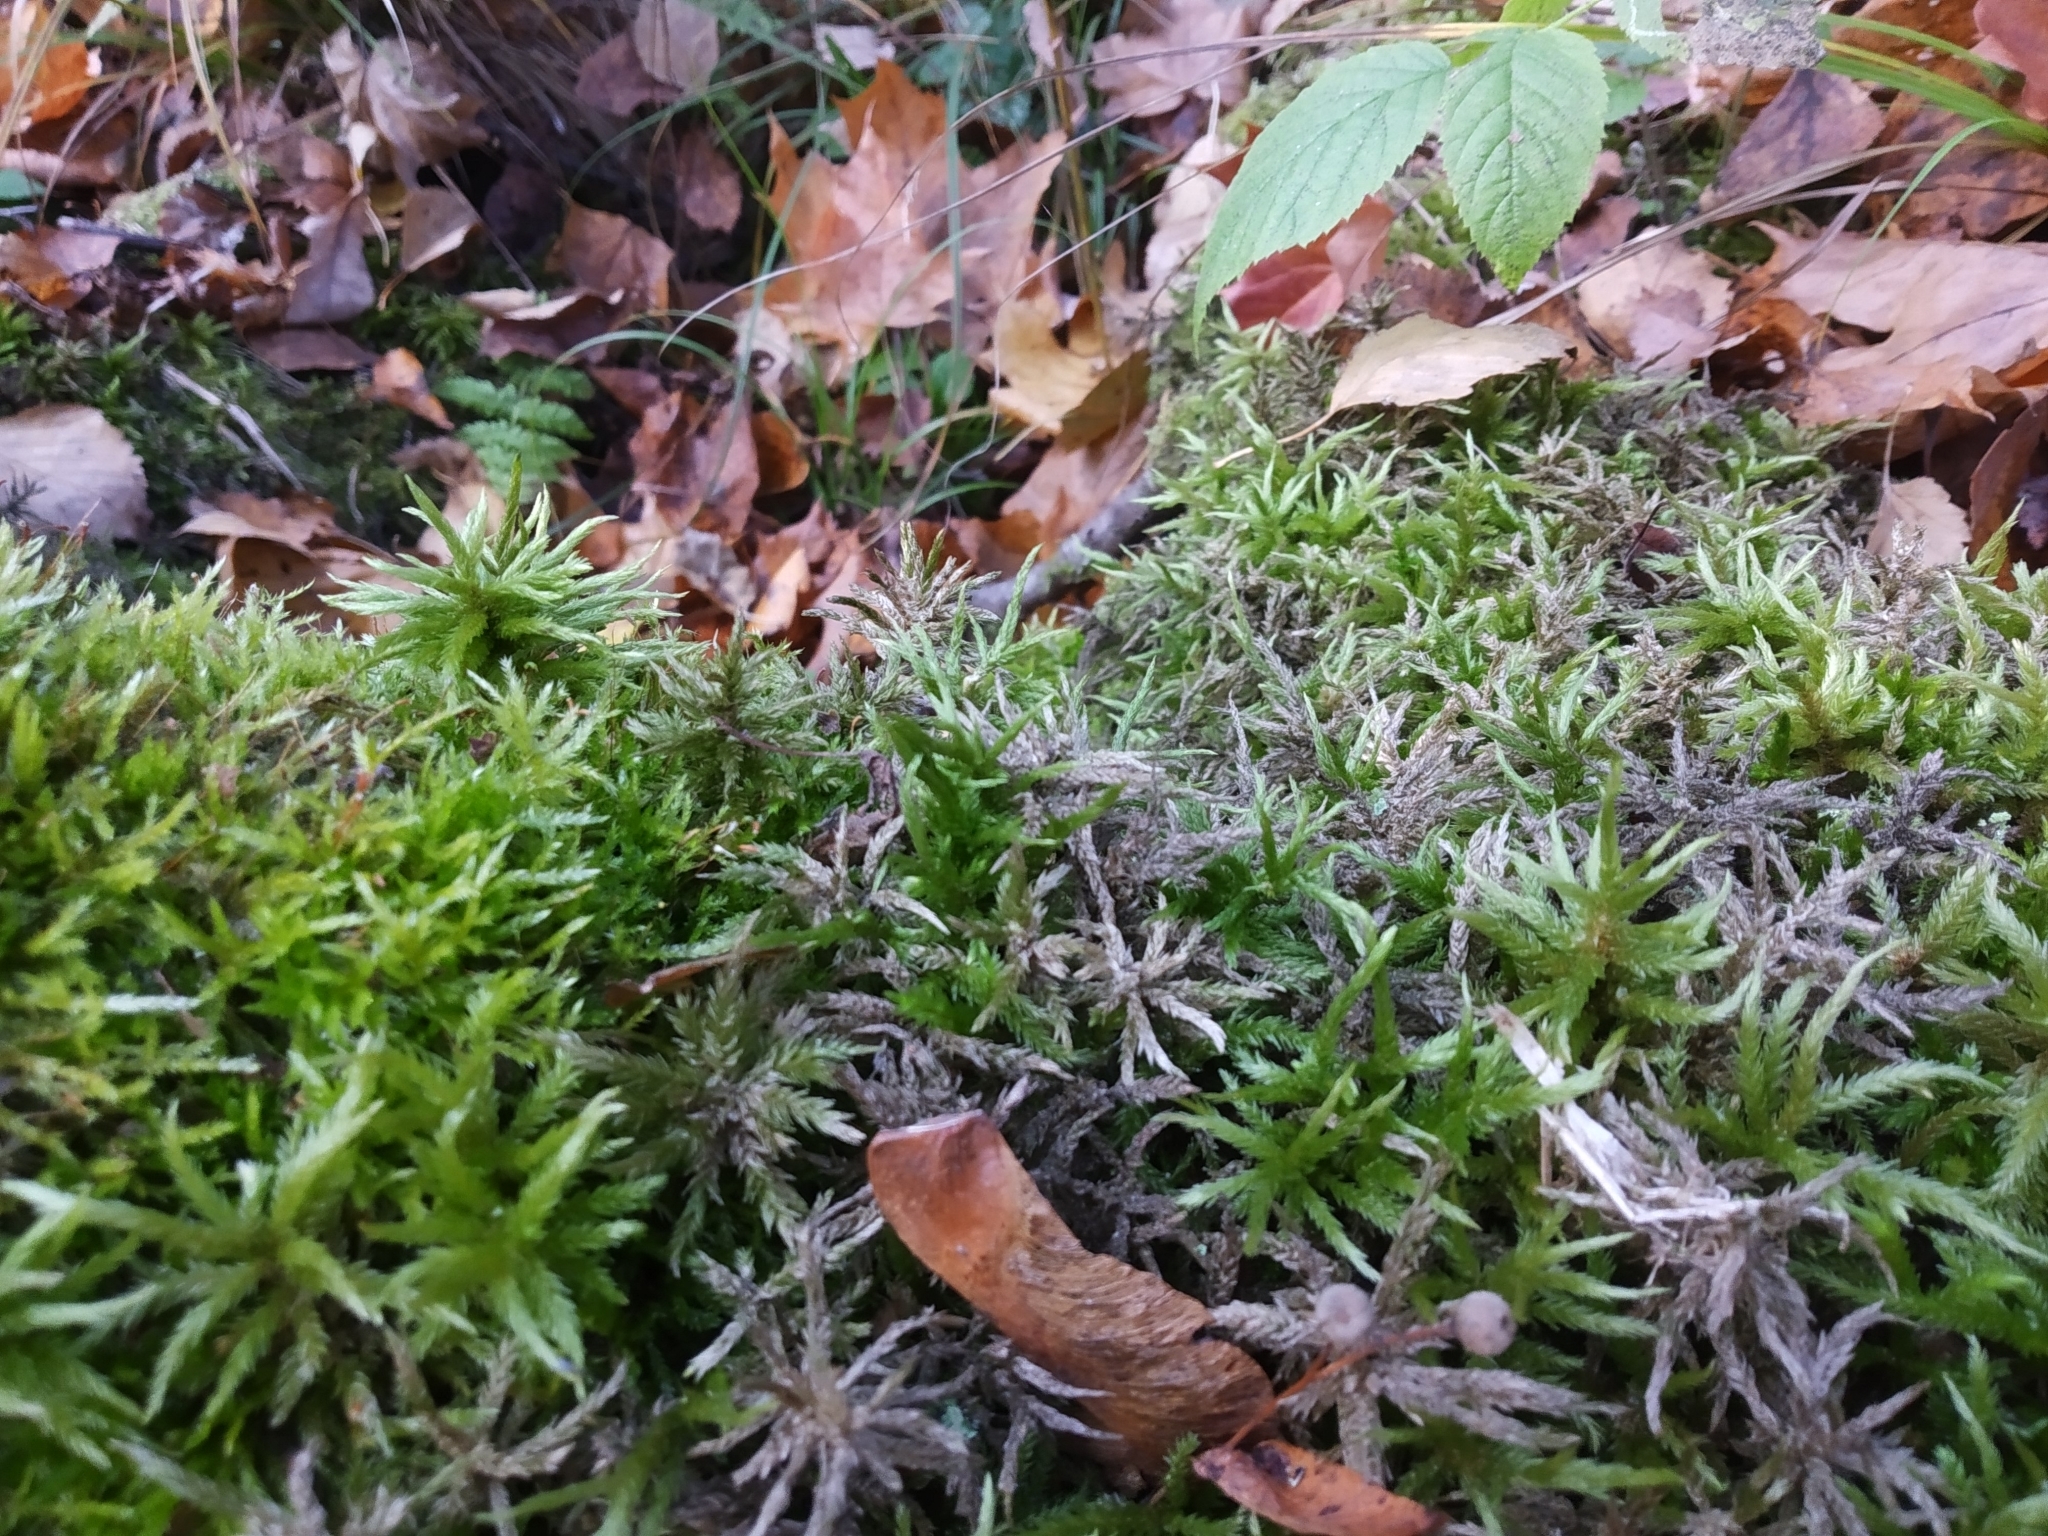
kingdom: Plantae
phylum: Bryophyta
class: Bryopsida
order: Hypnales
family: Climaciaceae
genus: Climacium
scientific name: Climacium dendroides
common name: Northern tree moss
